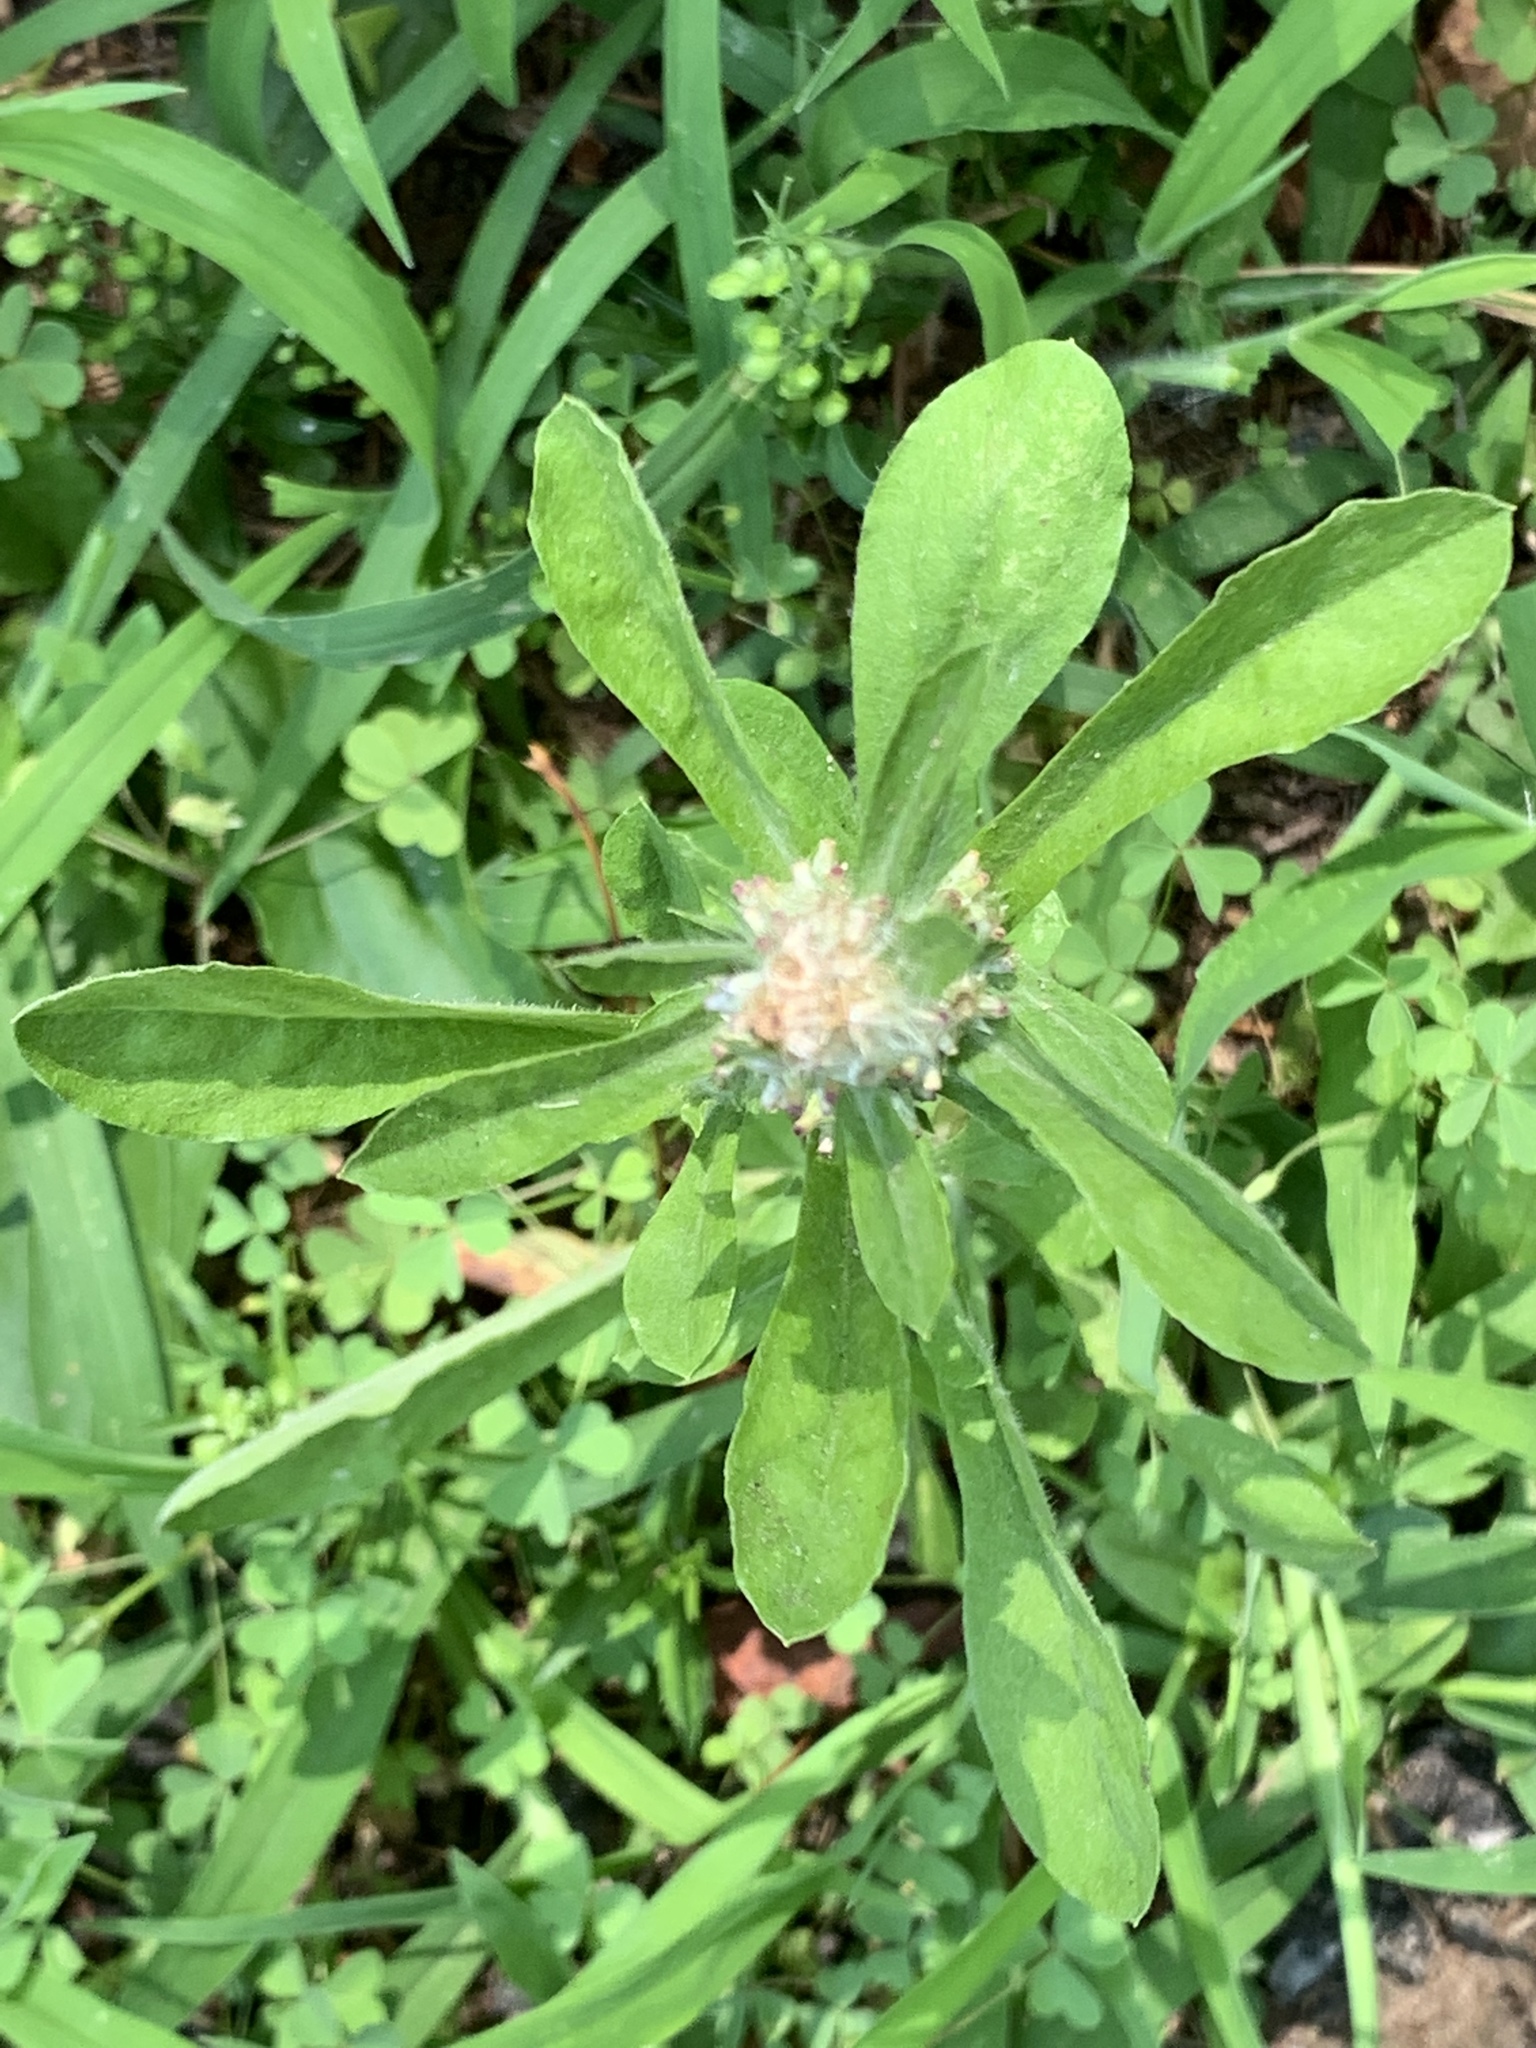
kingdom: Plantae
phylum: Tracheophyta
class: Magnoliopsida
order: Asterales
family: Asteraceae
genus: Gamochaeta
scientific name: Gamochaeta pensylvanica
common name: Pennsylvania everlasting
